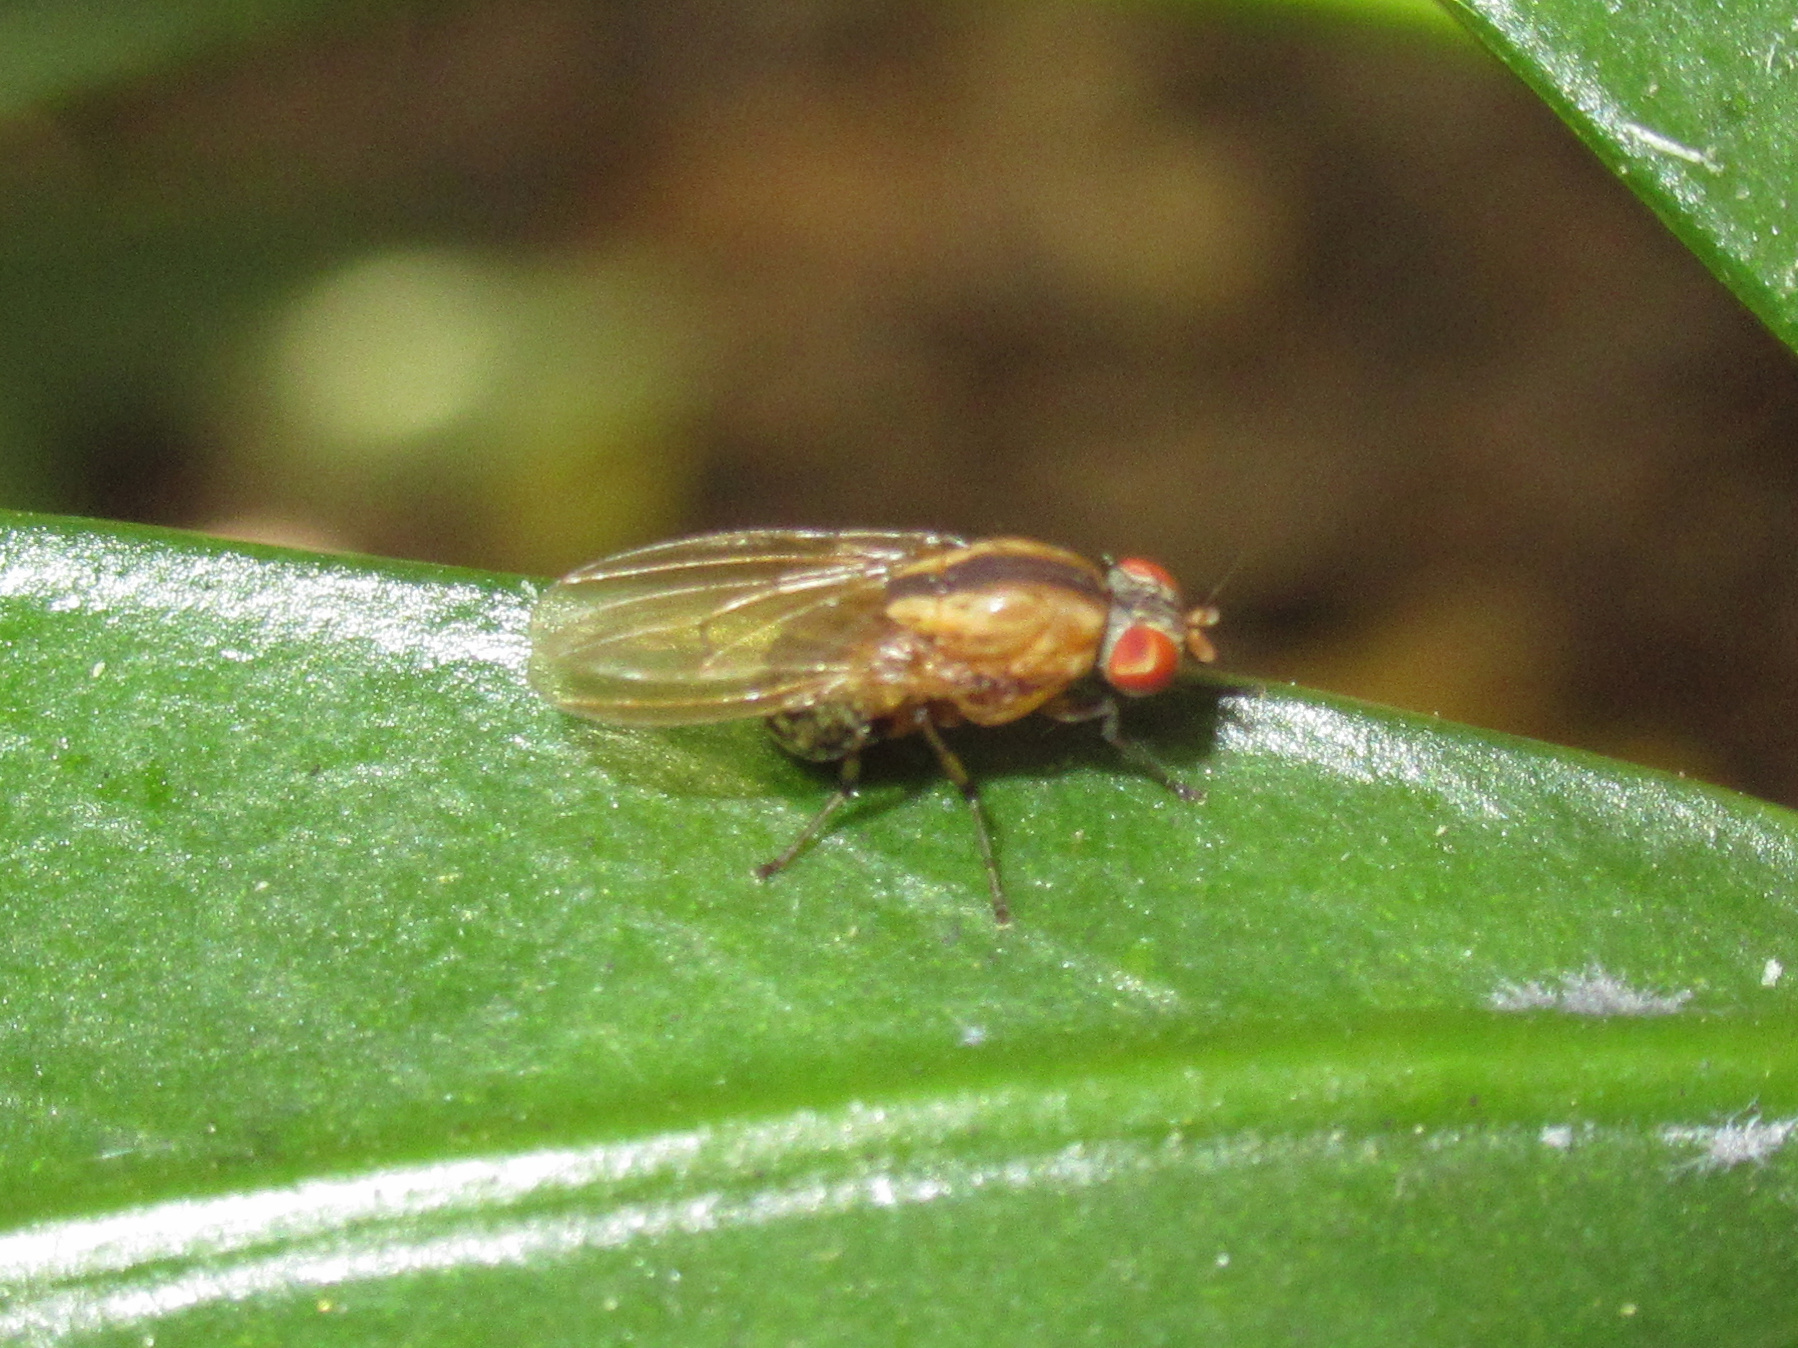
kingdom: Animalia
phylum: Arthropoda
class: Insecta
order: Diptera
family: Lauxaniidae
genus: Sapromyza
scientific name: Sapromyza neozelandica
